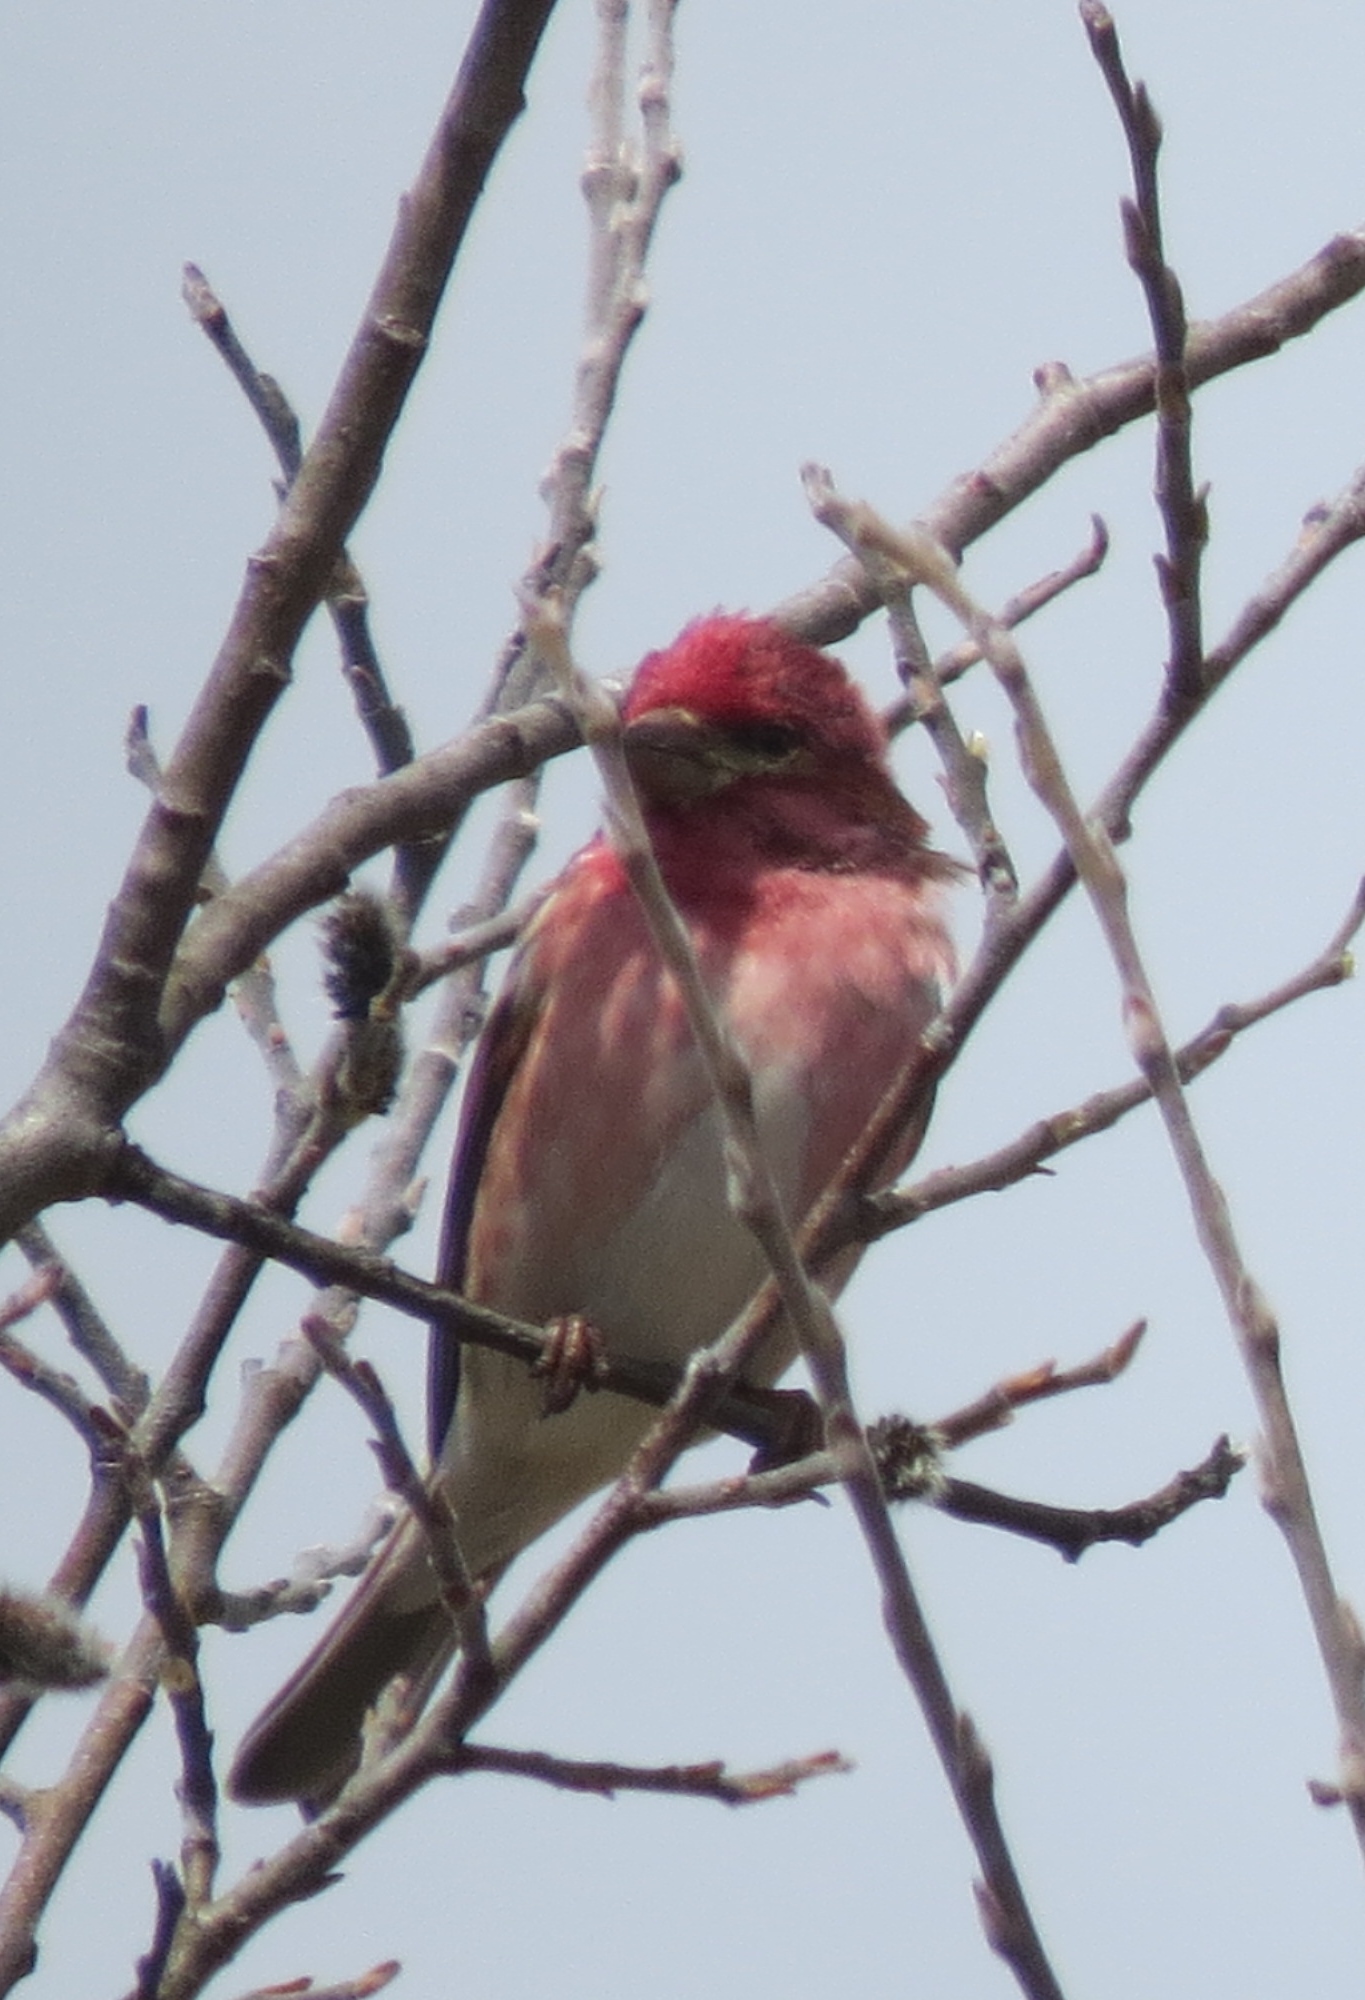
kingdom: Animalia
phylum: Chordata
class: Aves
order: Passeriformes
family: Fringillidae
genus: Haemorhous
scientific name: Haemorhous purpureus
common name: Purple finch
